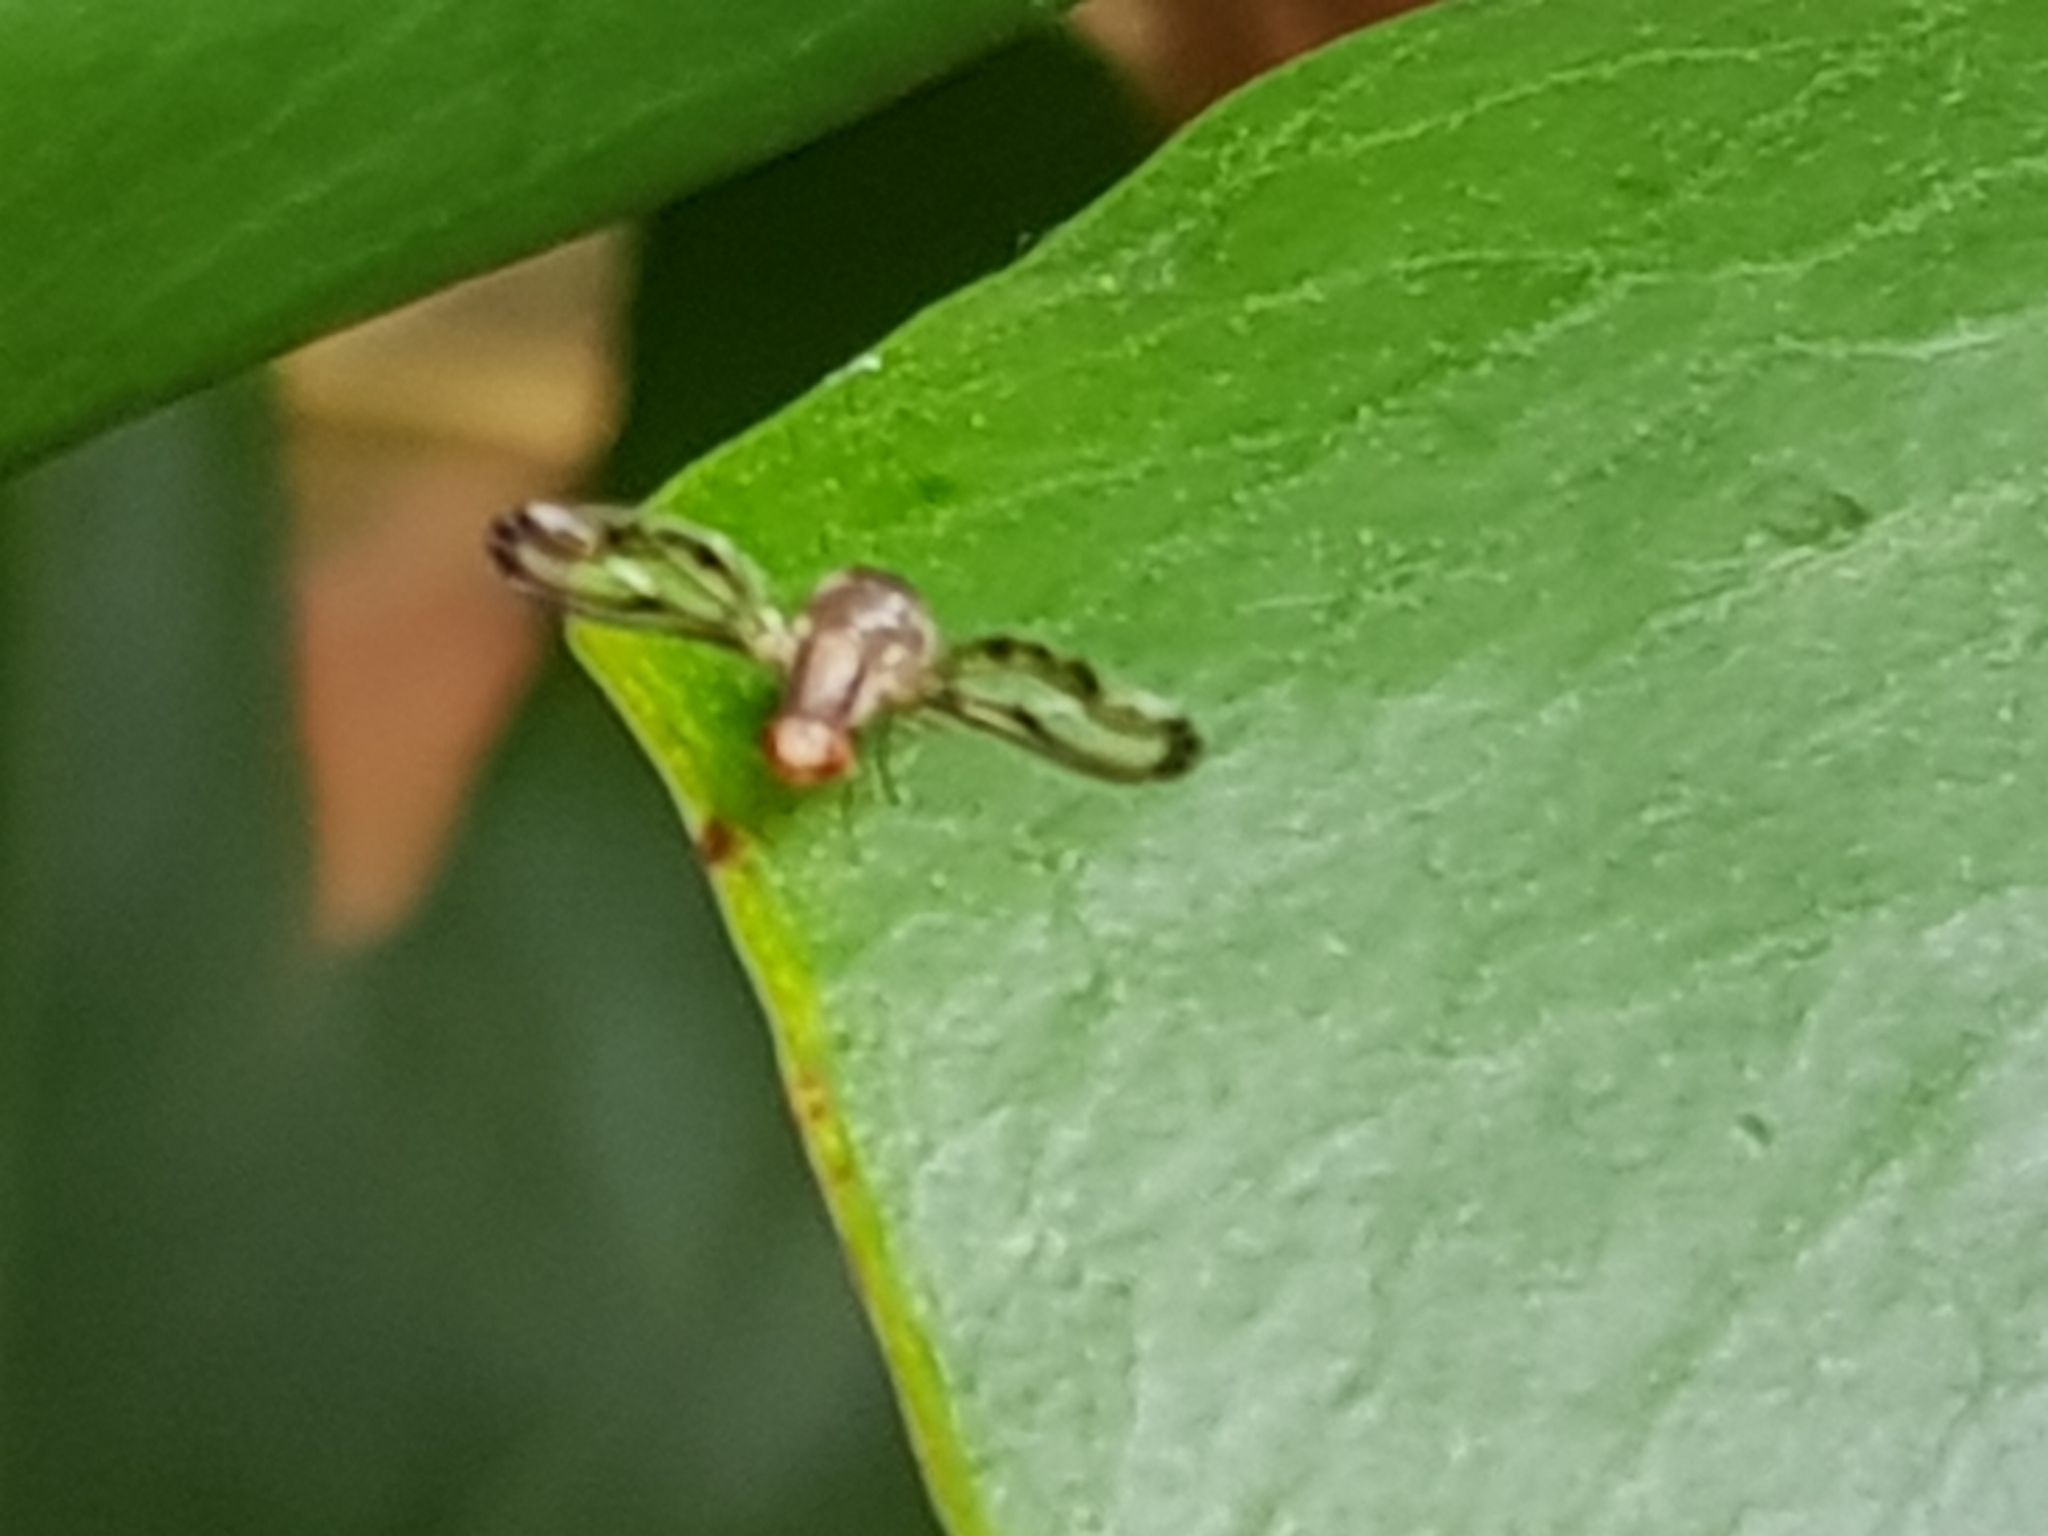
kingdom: Animalia
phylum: Arthropoda
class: Insecta
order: Diptera
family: Pallopteridae
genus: Toxonevra
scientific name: Toxonevra muliebris
